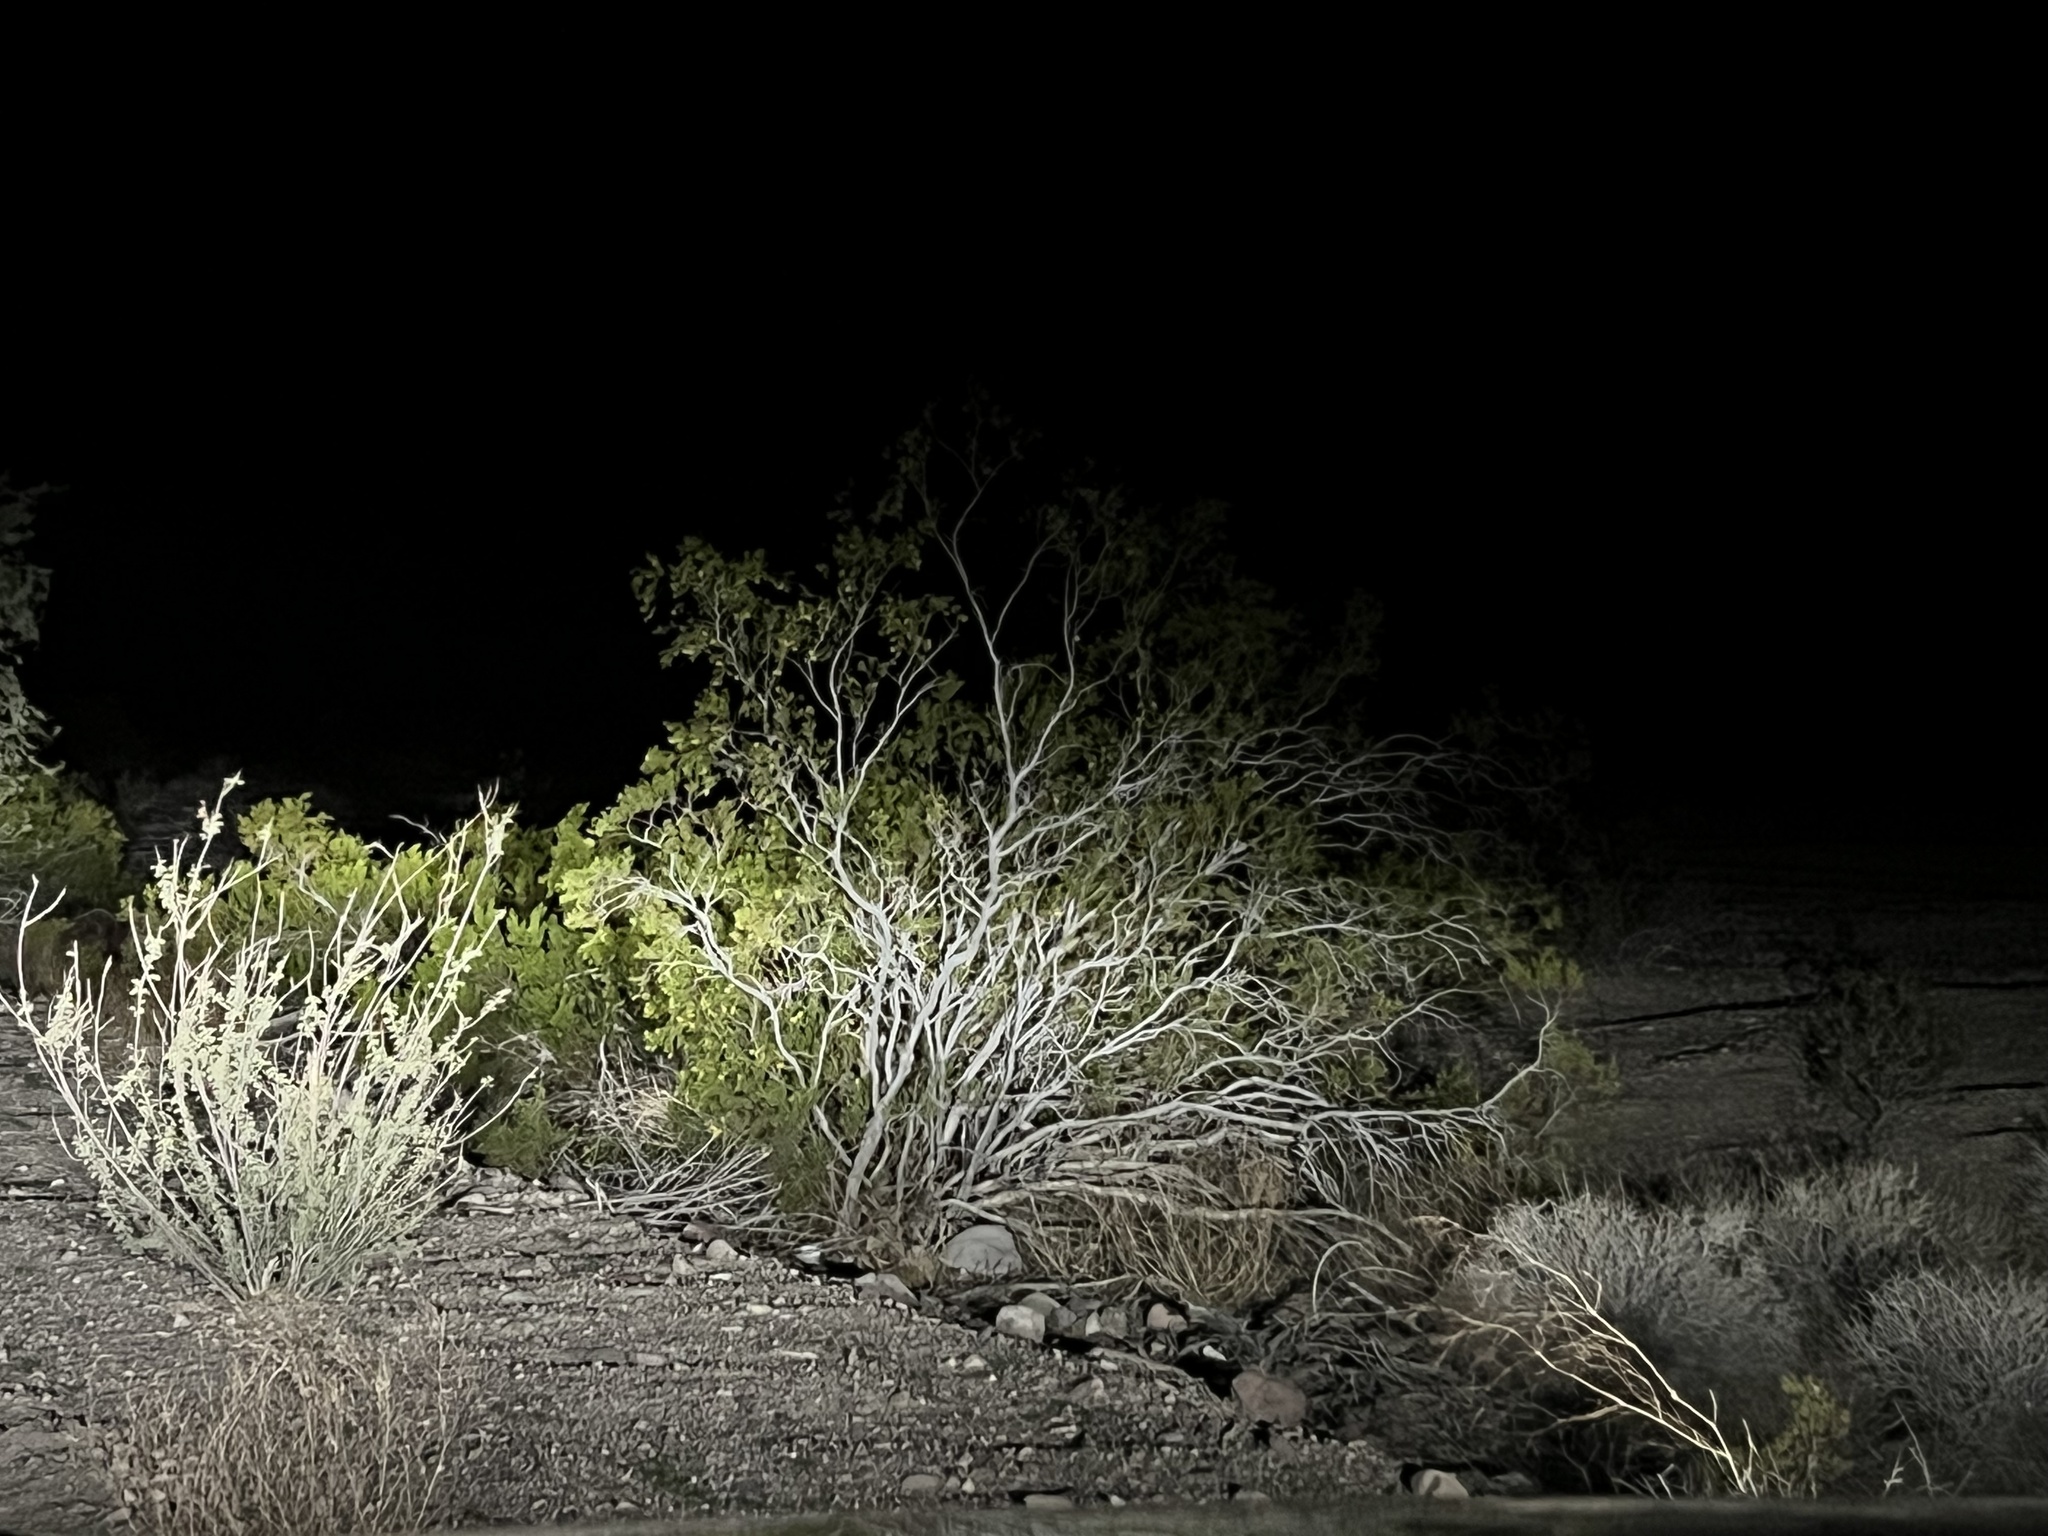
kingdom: Plantae
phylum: Tracheophyta
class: Magnoliopsida
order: Zygophyllales
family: Zygophyllaceae
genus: Larrea
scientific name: Larrea tridentata
